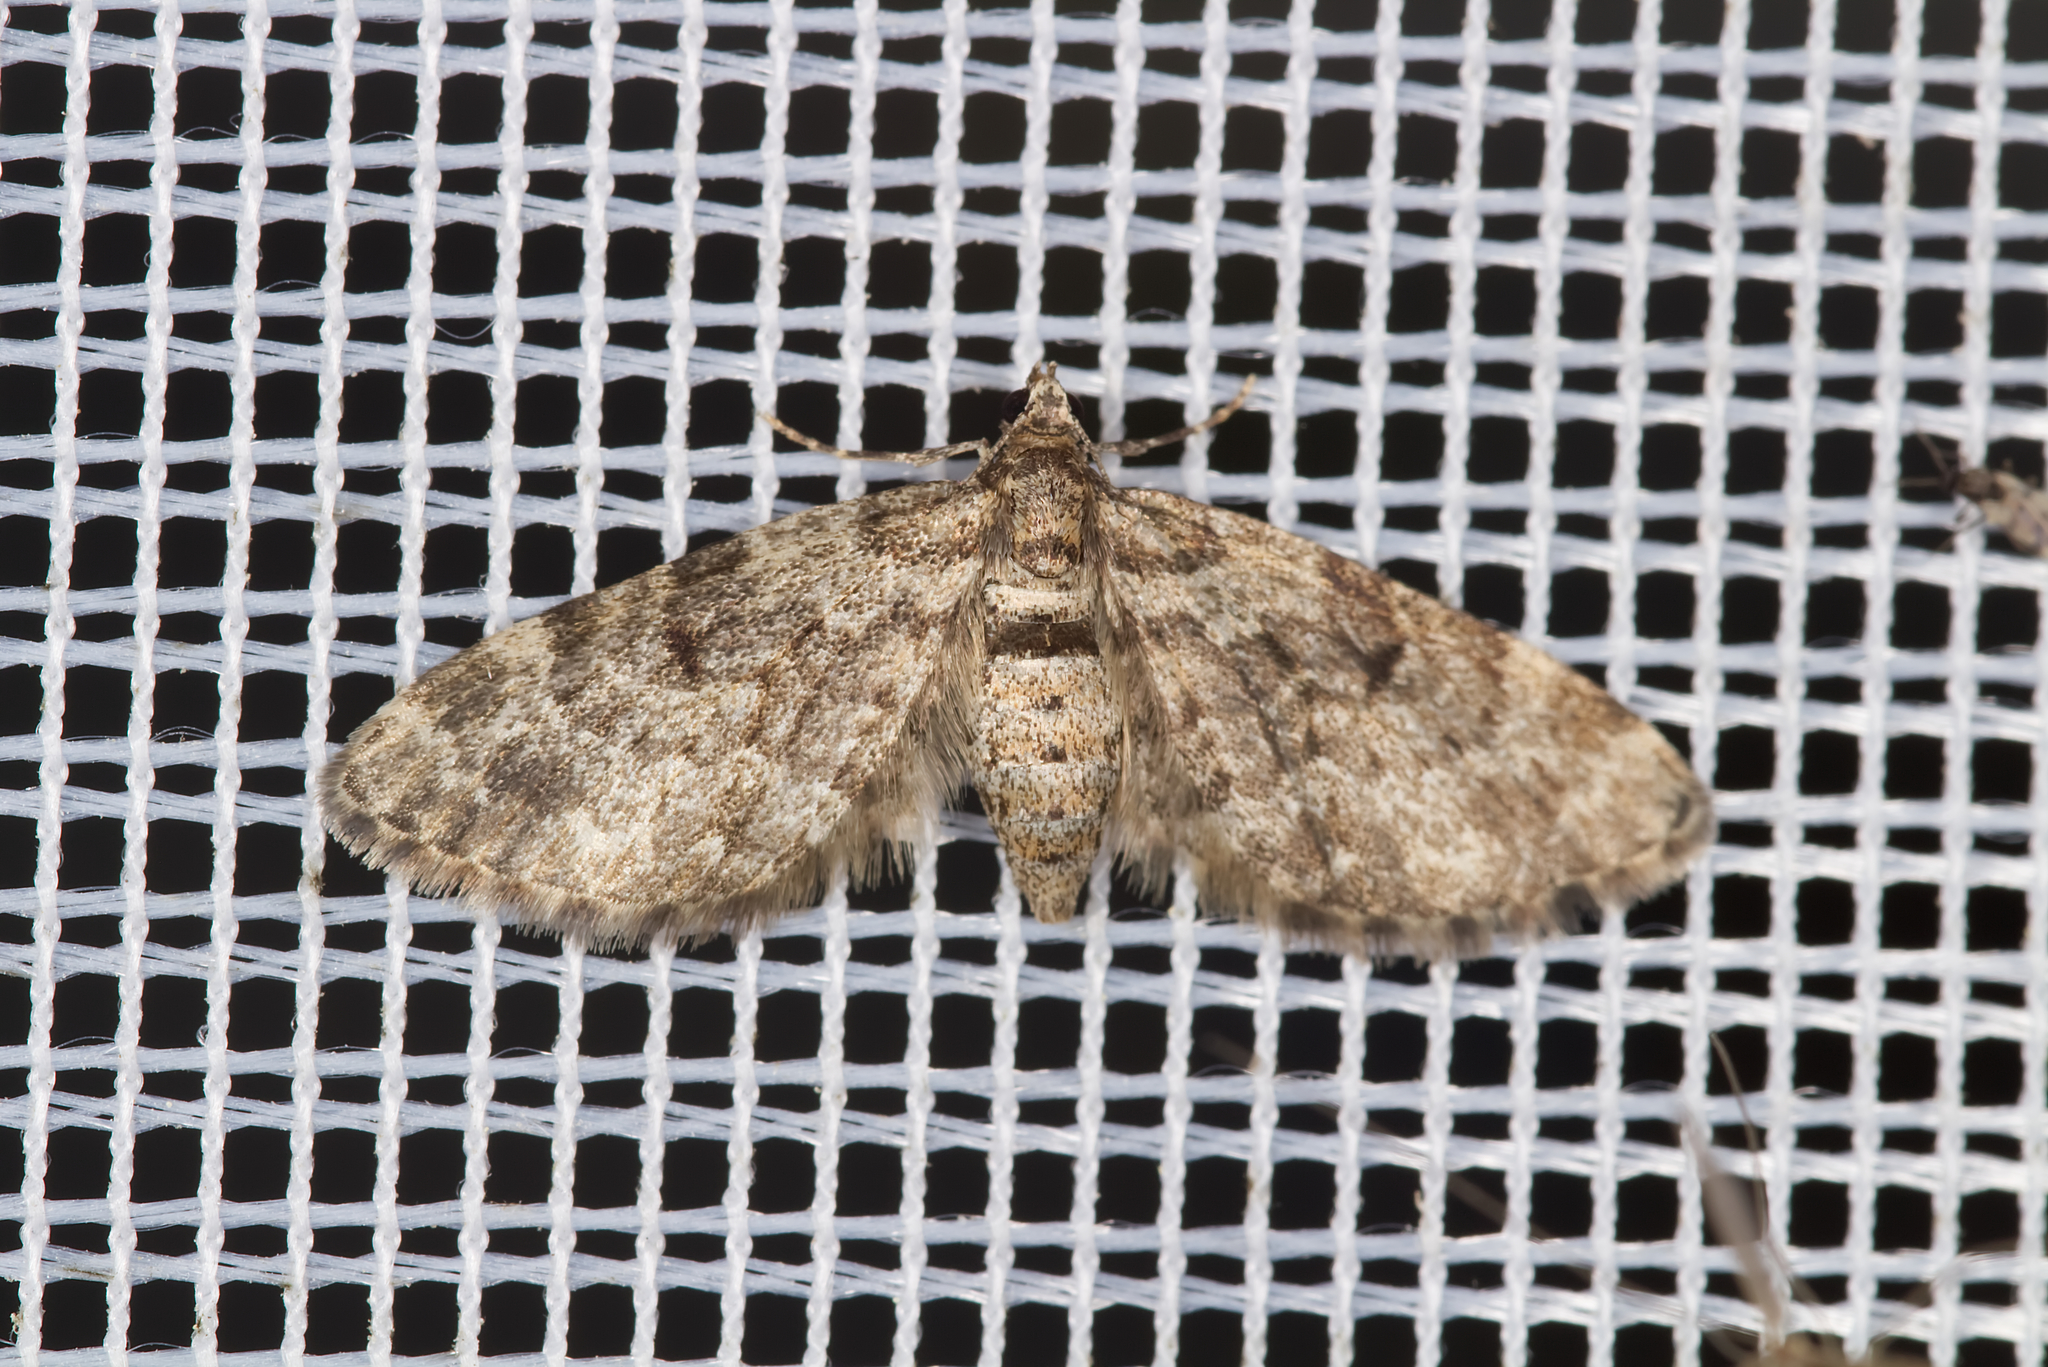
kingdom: Animalia
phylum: Arthropoda
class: Insecta
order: Lepidoptera
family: Geometridae
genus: Eupithecia
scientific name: Eupithecia tantillaria
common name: Dwarf pug
